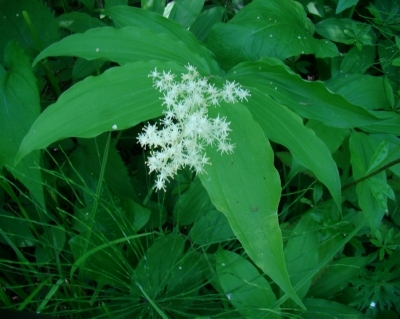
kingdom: Plantae
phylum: Tracheophyta
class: Liliopsida
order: Asparagales
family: Asparagaceae
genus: Maianthemum
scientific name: Maianthemum racemosum
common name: False spikenard
